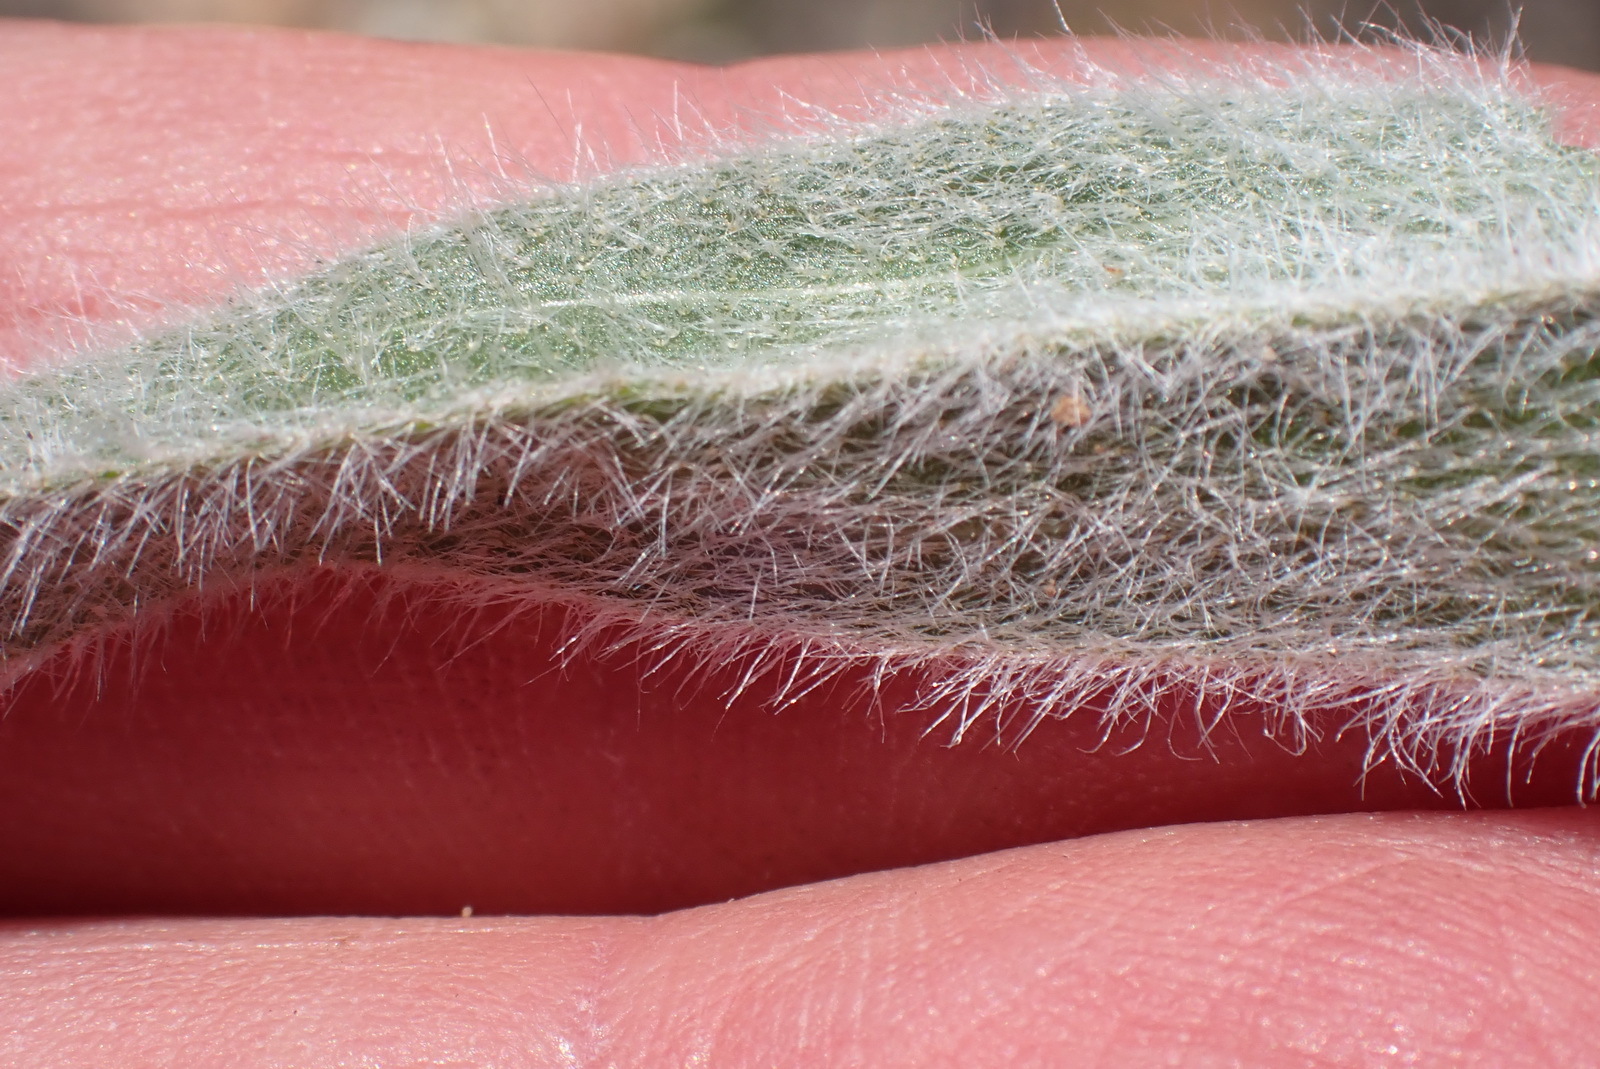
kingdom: Plantae
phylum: Tracheophyta
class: Liliopsida
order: Asparagales
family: Hypoxidaceae
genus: Hypoxis
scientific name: Hypoxis sobolifera
